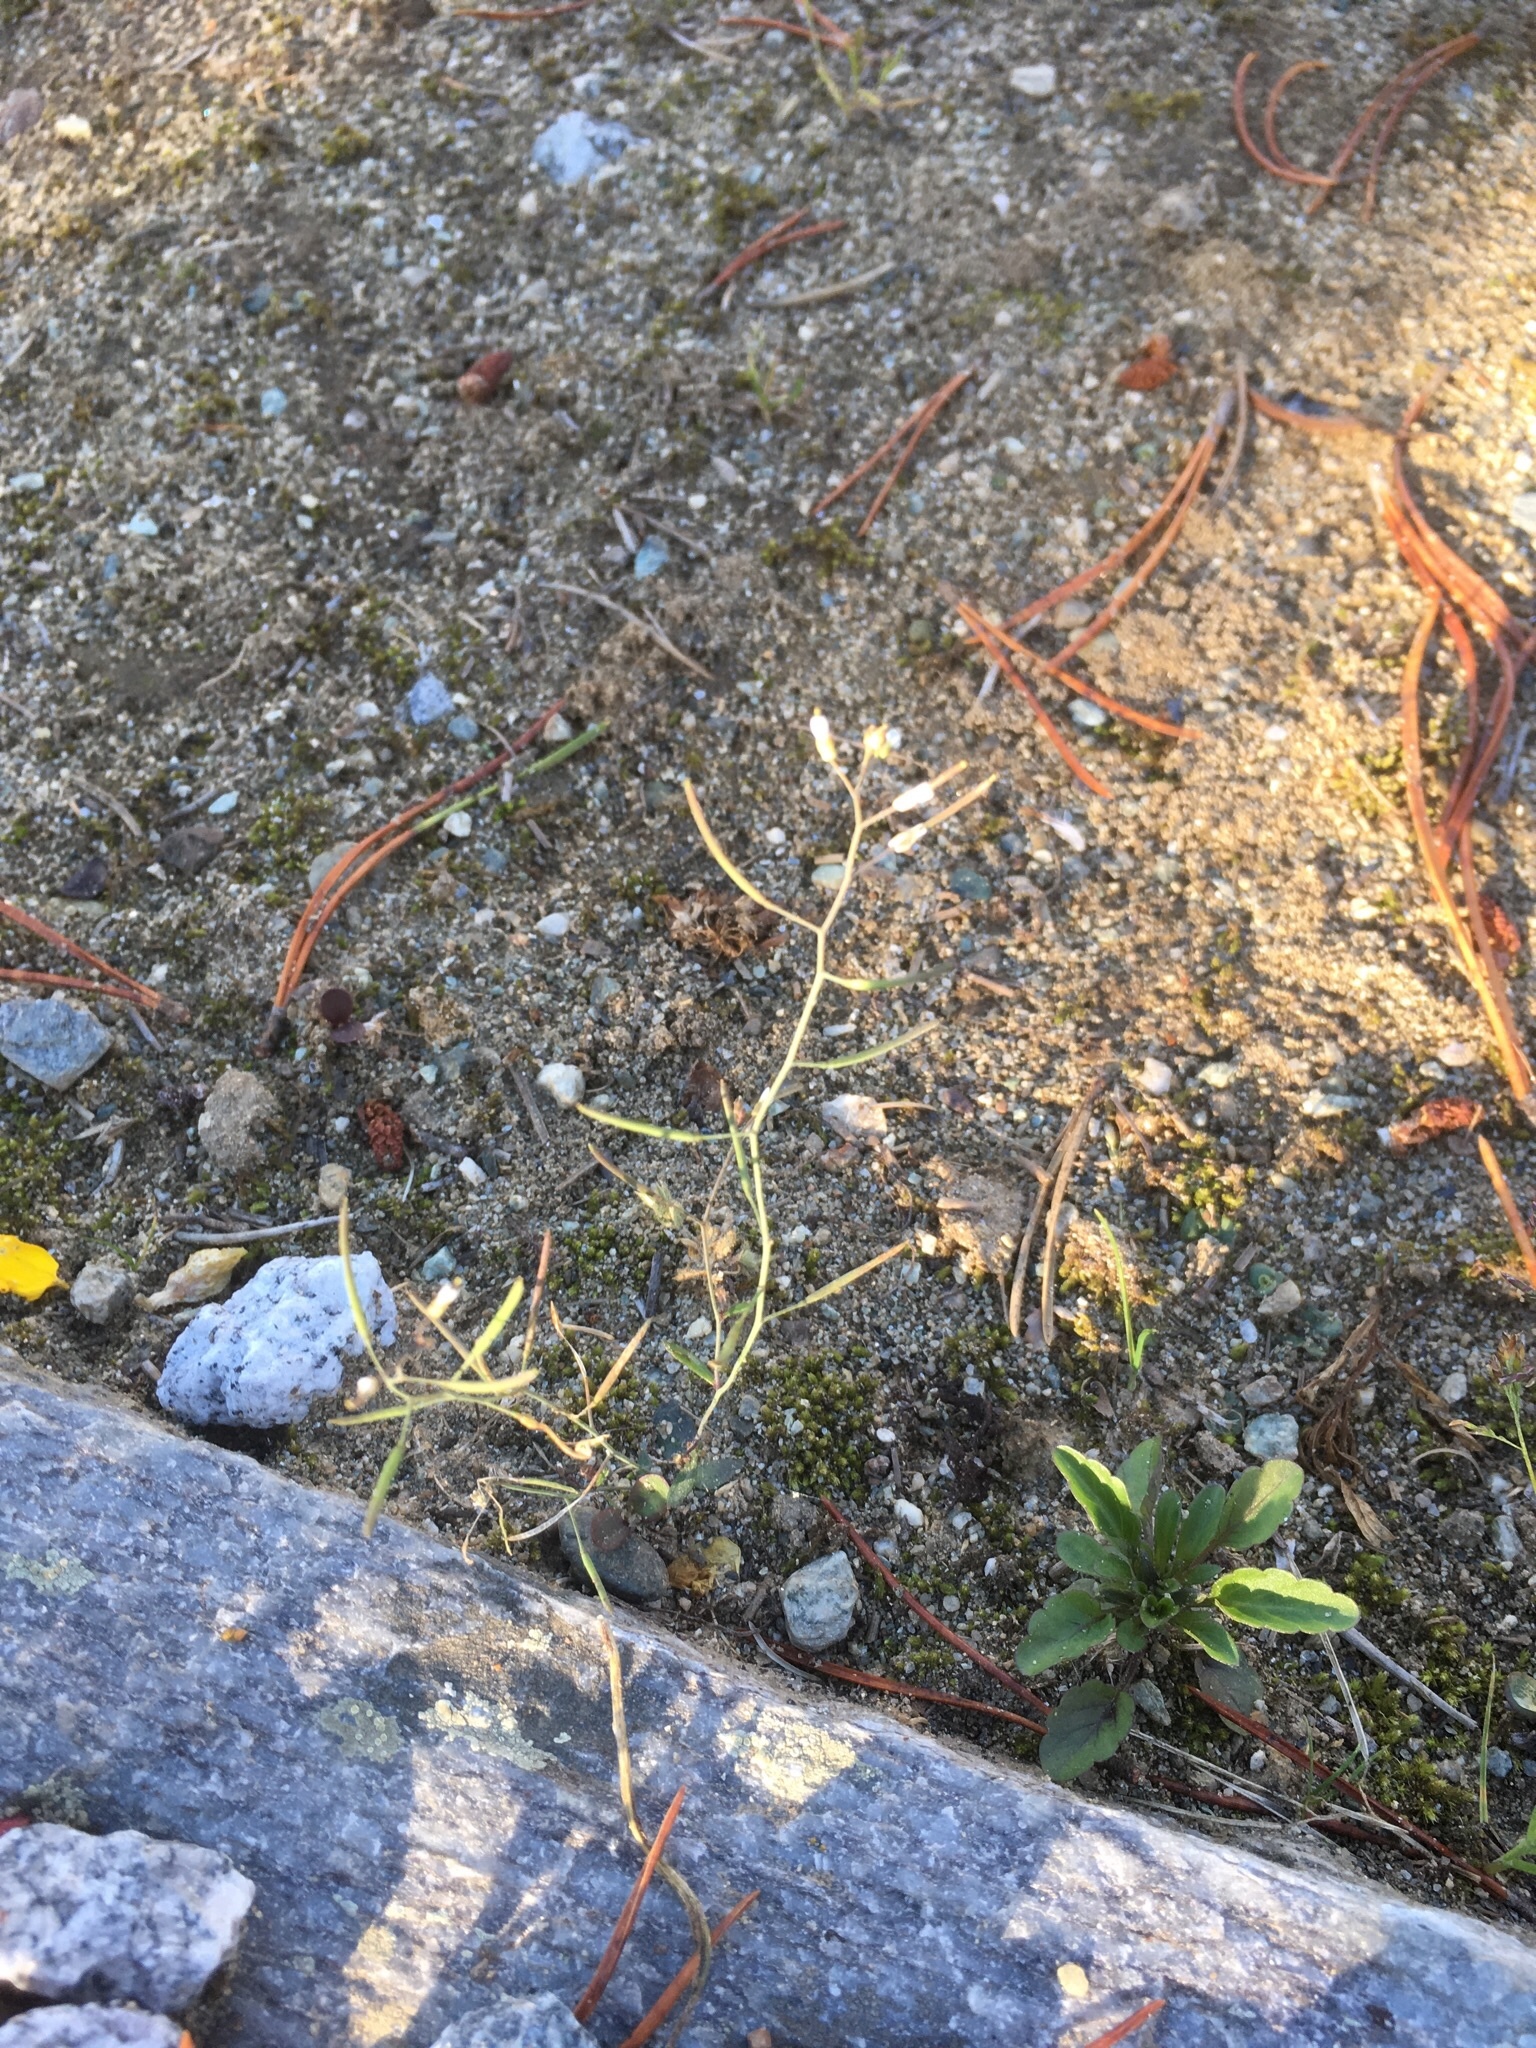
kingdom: Plantae
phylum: Tracheophyta
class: Magnoliopsida
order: Brassicales
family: Brassicaceae
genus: Arabidopsis
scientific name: Arabidopsis thaliana
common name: Thale cress
